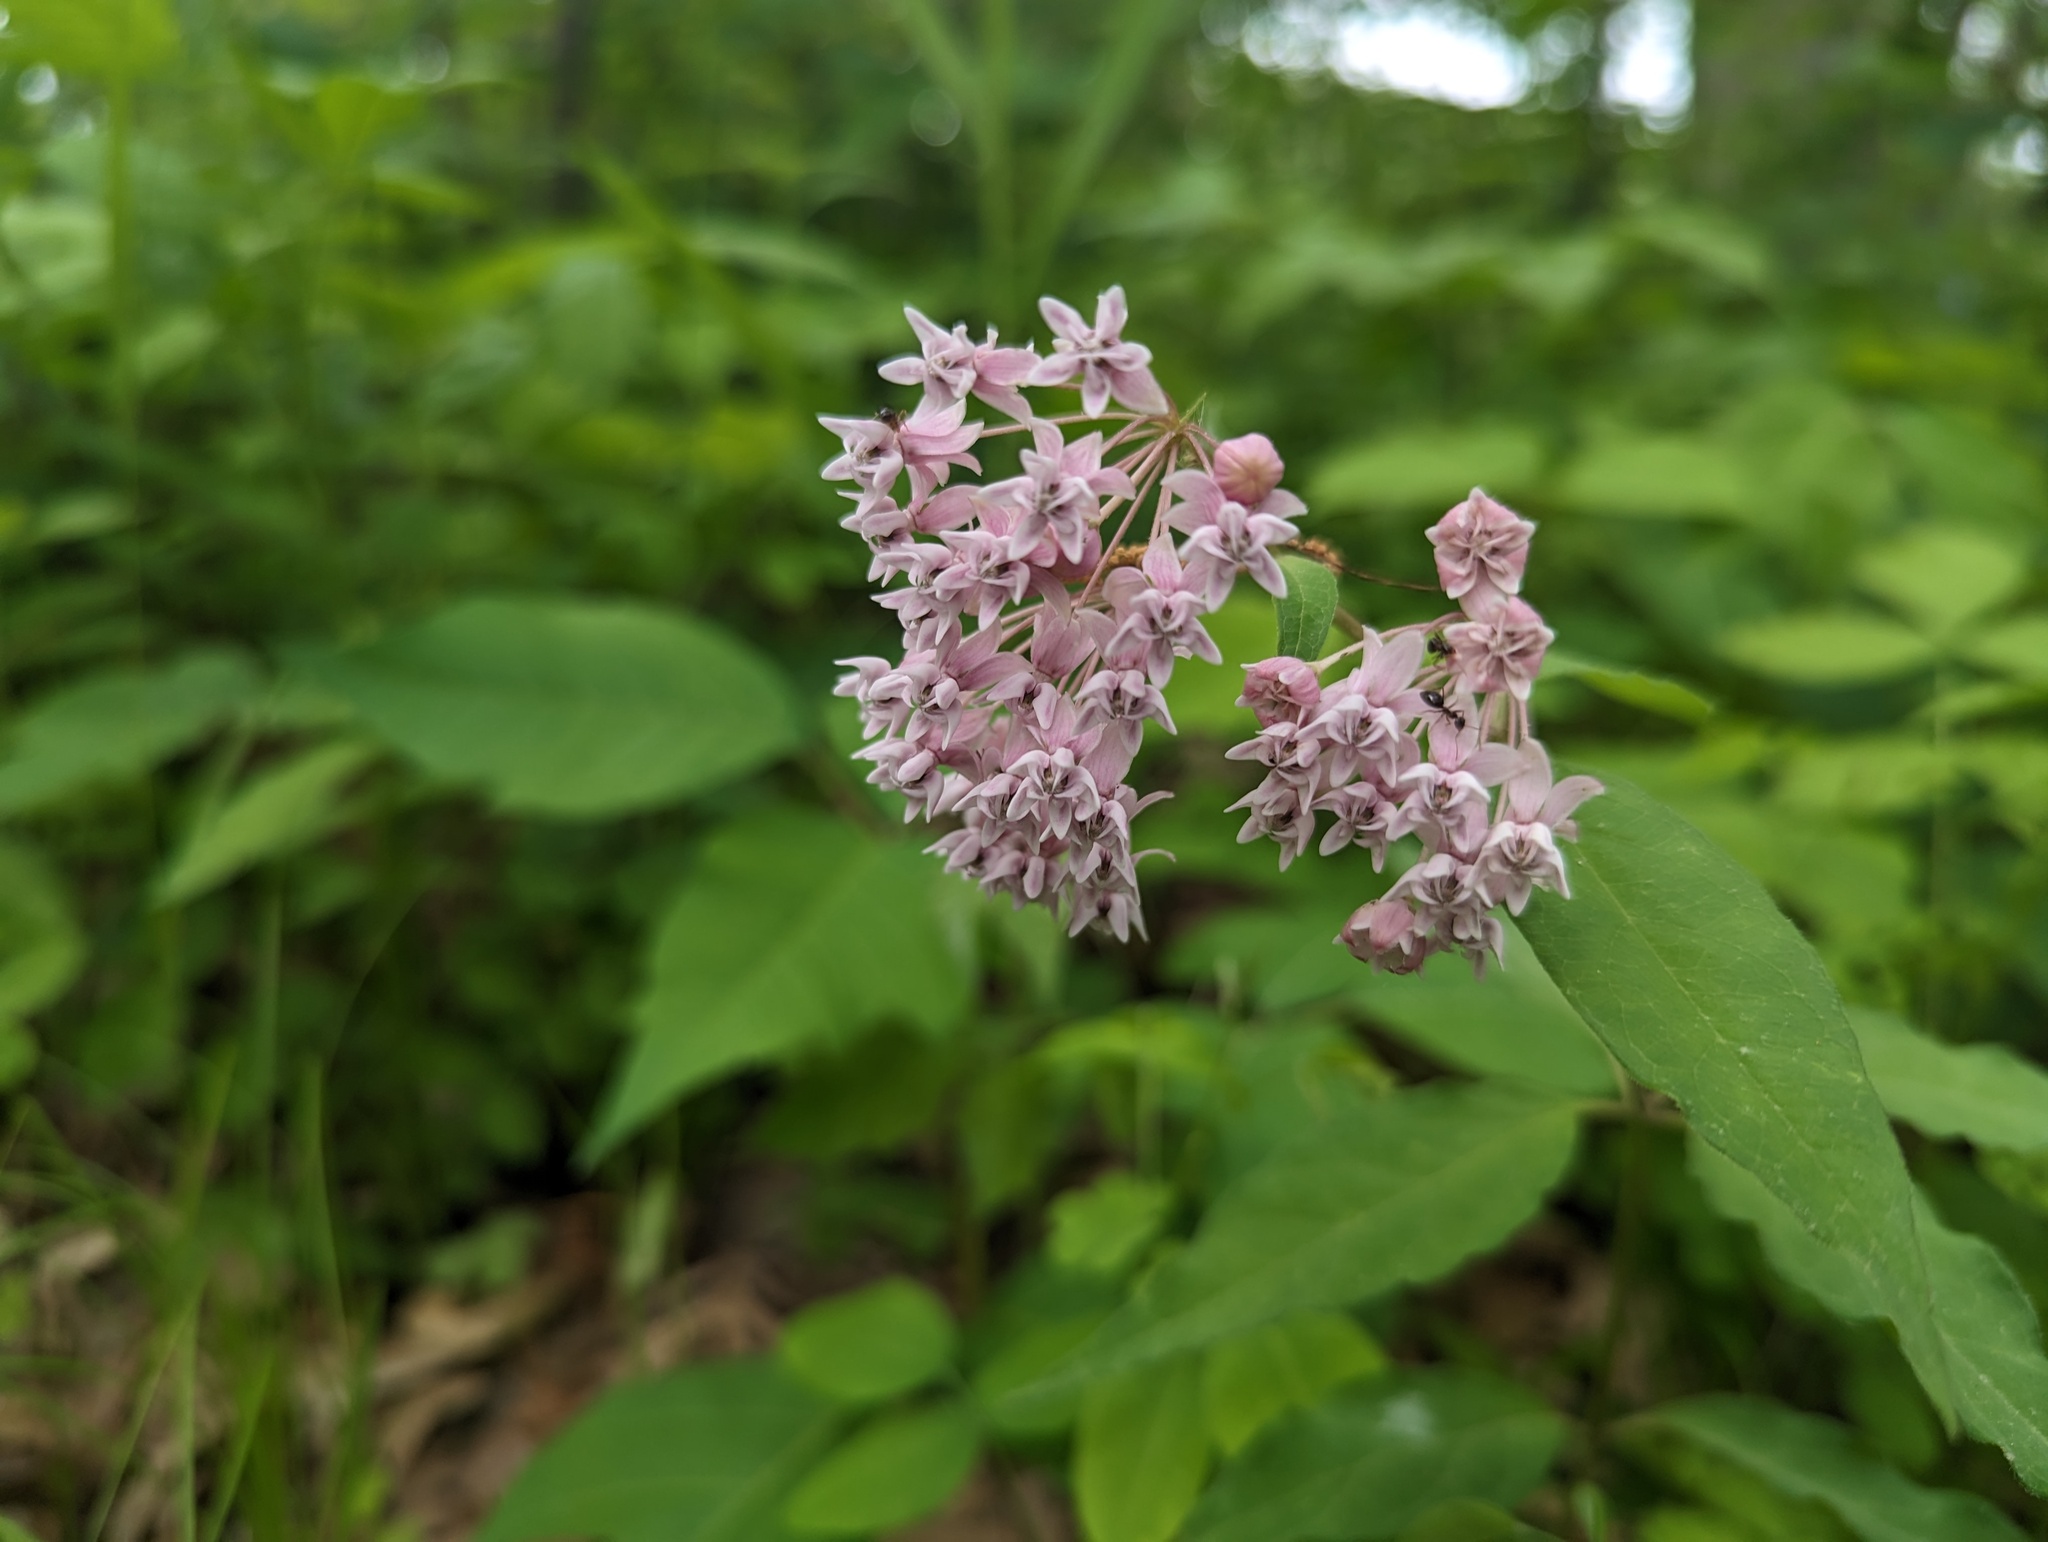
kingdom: Plantae
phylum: Tracheophyta
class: Magnoliopsida
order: Gentianales
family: Apocynaceae
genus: Asclepias
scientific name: Asclepias quadrifolia
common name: Whorled milkweed
